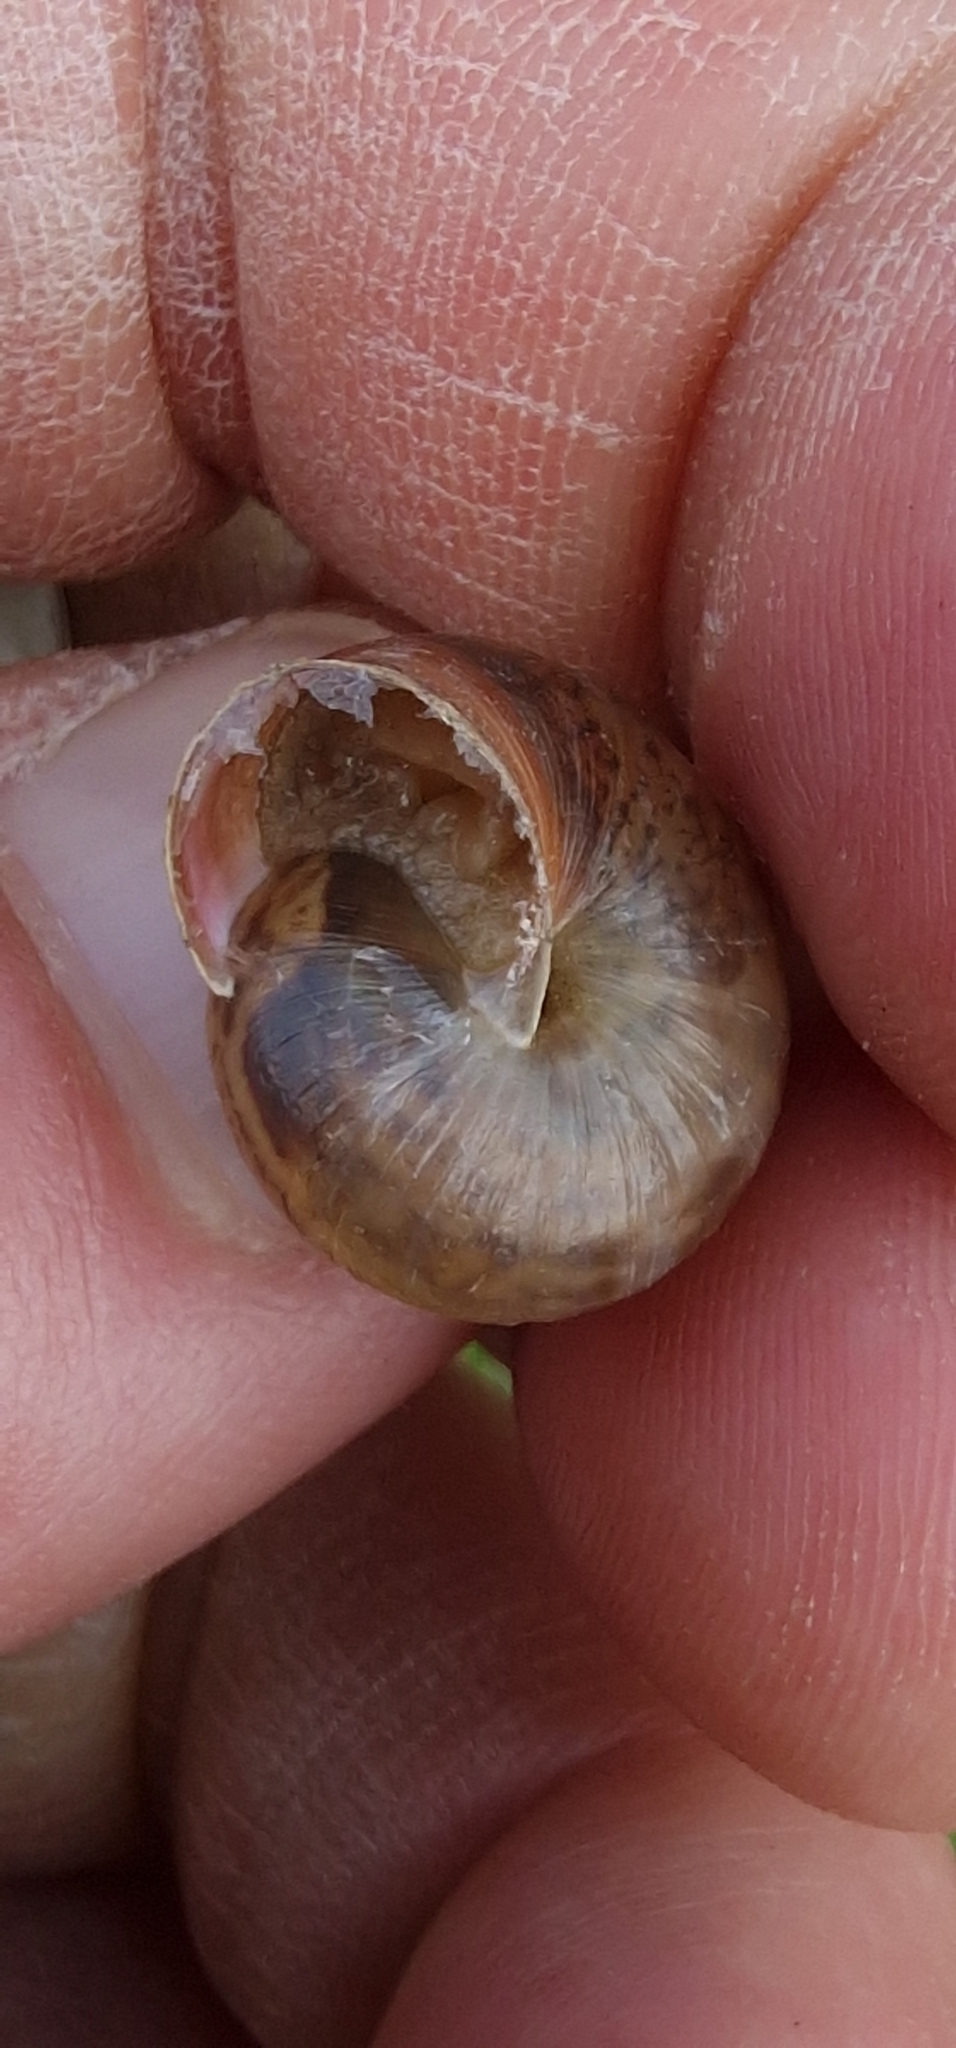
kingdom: Animalia
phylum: Mollusca
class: Gastropoda
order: Stylommatophora
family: Hygromiidae
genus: Monacha
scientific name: Monacha cantiana
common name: Kentish snail
